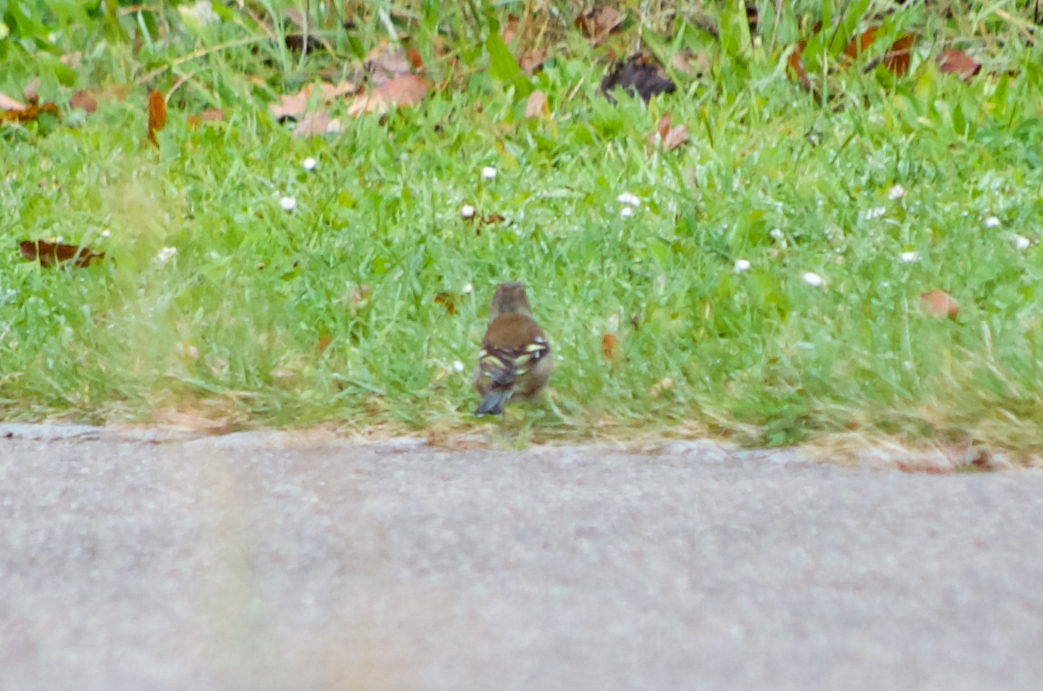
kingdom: Animalia
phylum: Chordata
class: Aves
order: Passeriformes
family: Fringillidae
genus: Fringilla
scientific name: Fringilla coelebs
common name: Common chaffinch
